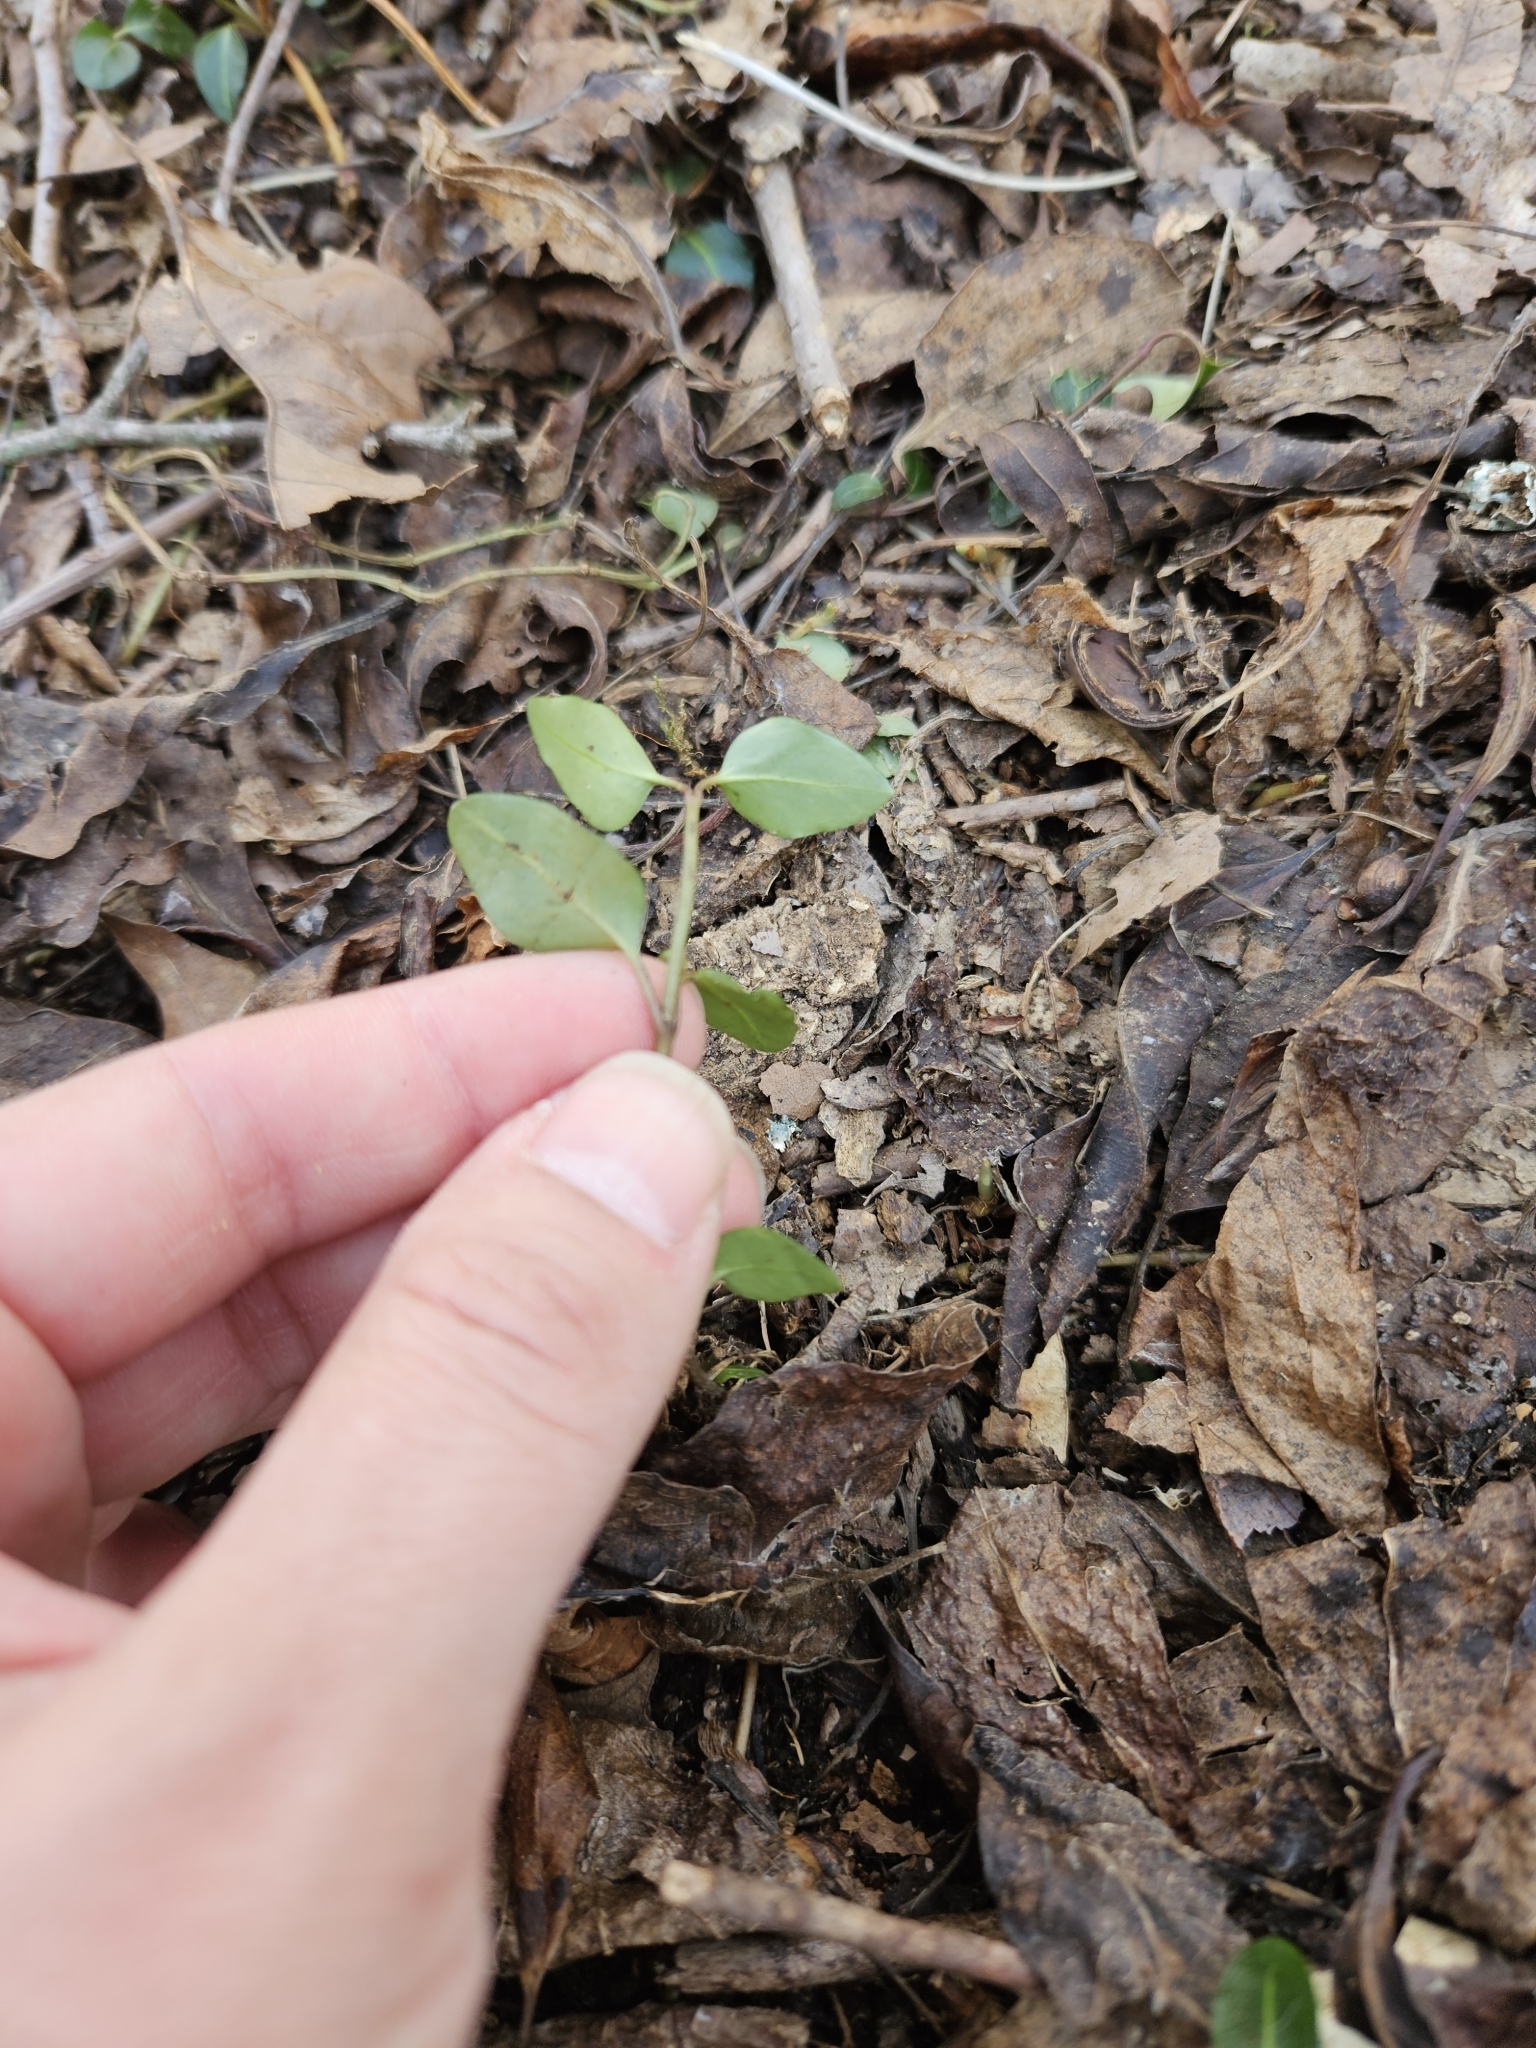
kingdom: Plantae
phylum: Tracheophyta
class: Magnoliopsida
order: Gentianales
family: Rubiaceae
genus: Mitchella
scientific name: Mitchella repens
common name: Partridge-berry
